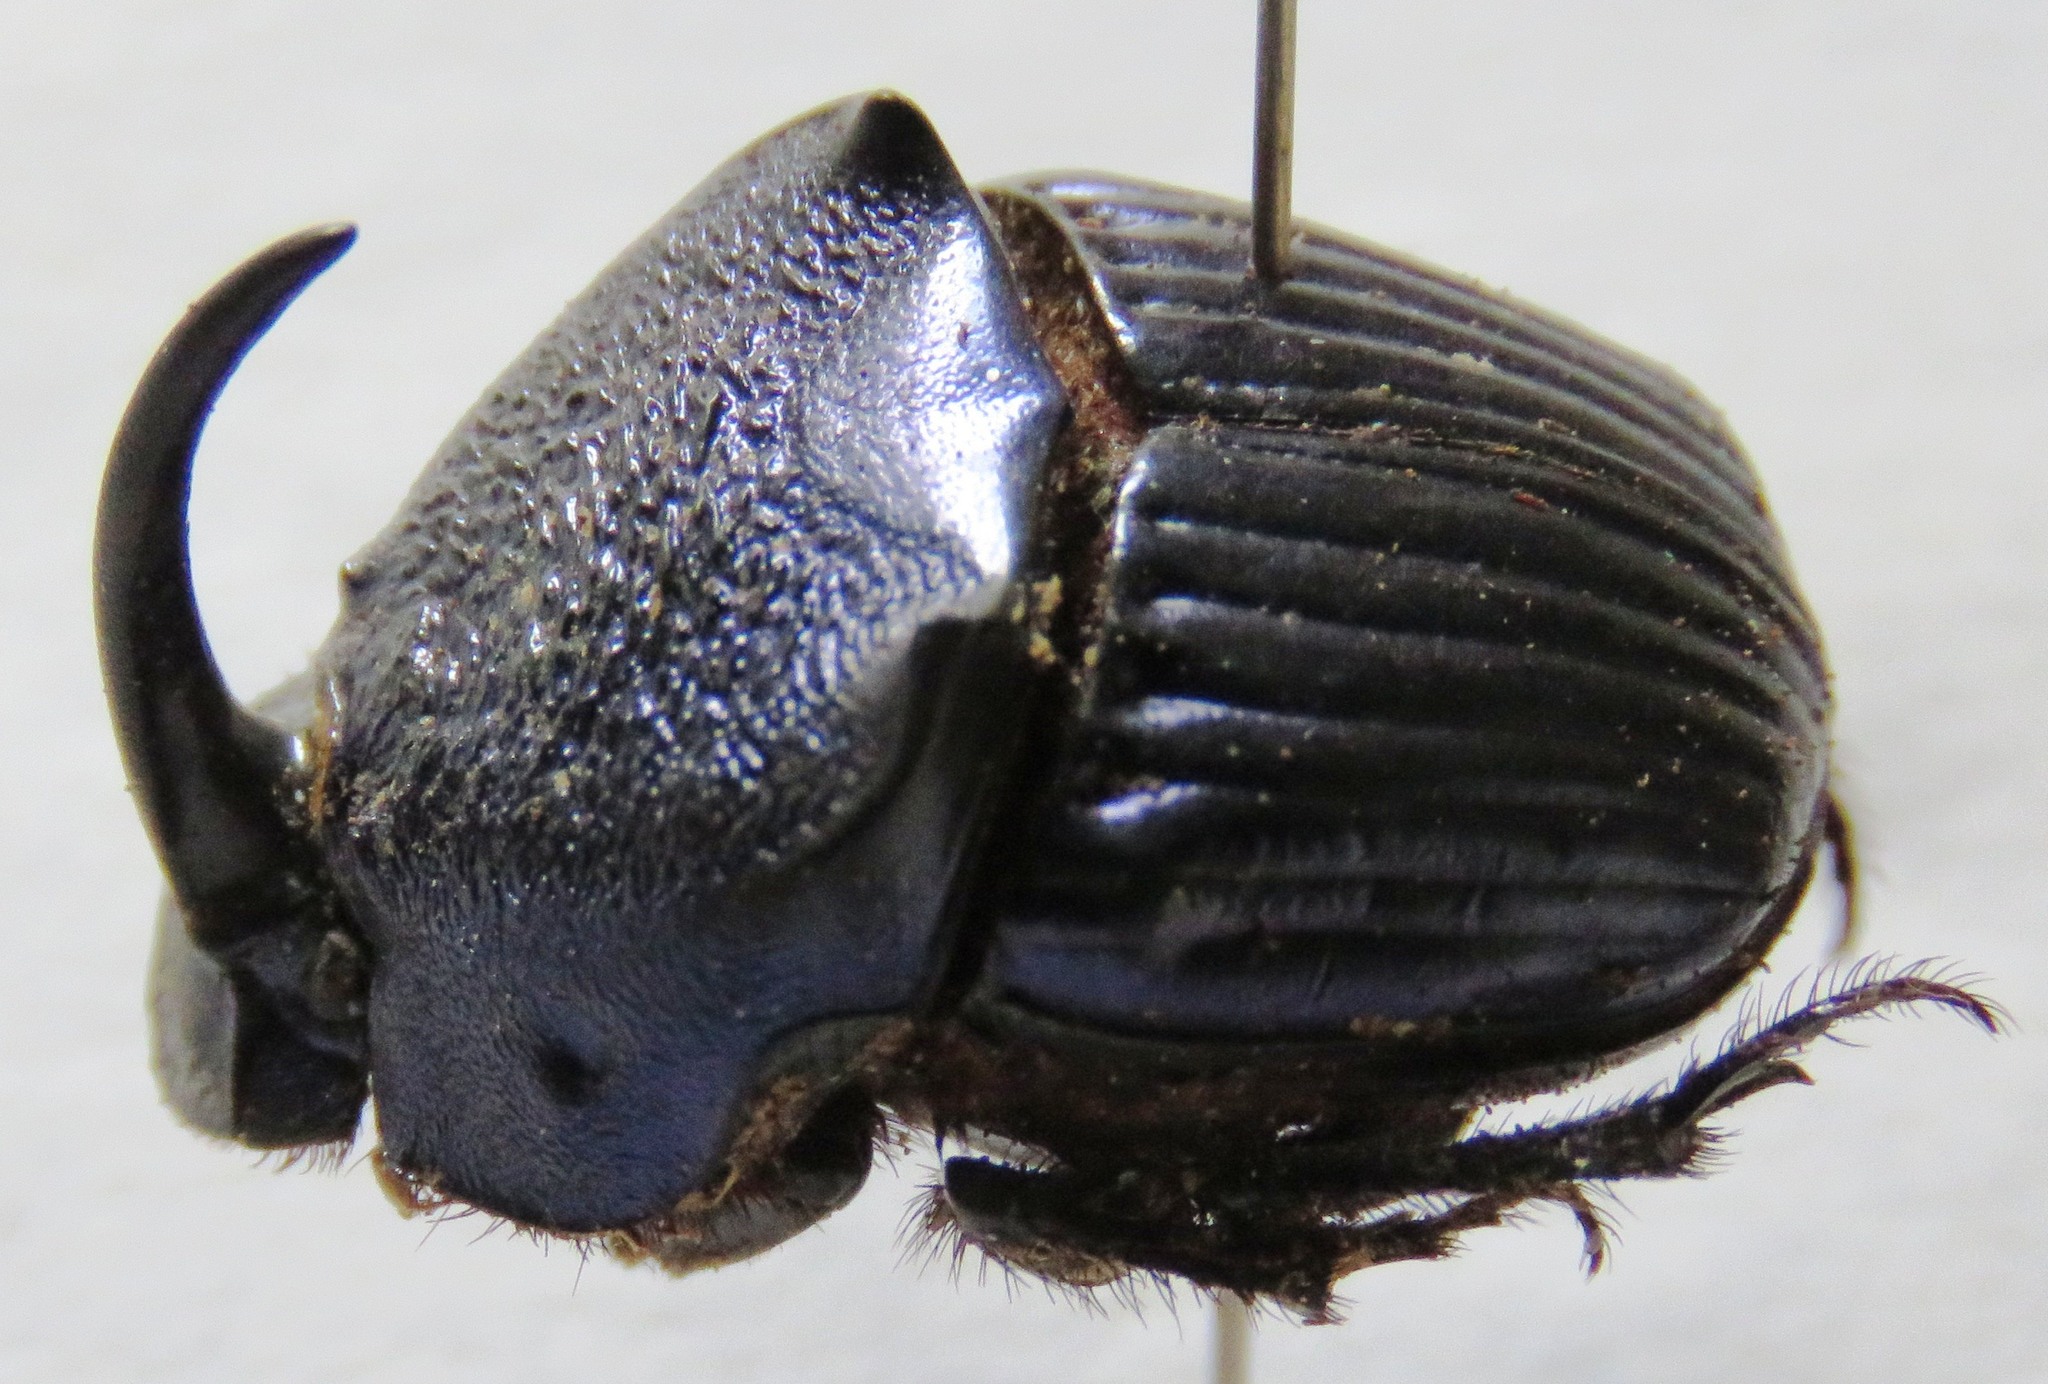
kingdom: Animalia
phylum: Arthropoda
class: Insecta
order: Coleoptera
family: Scarabaeidae
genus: Phanaeus
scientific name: Phanaeus wagneri
